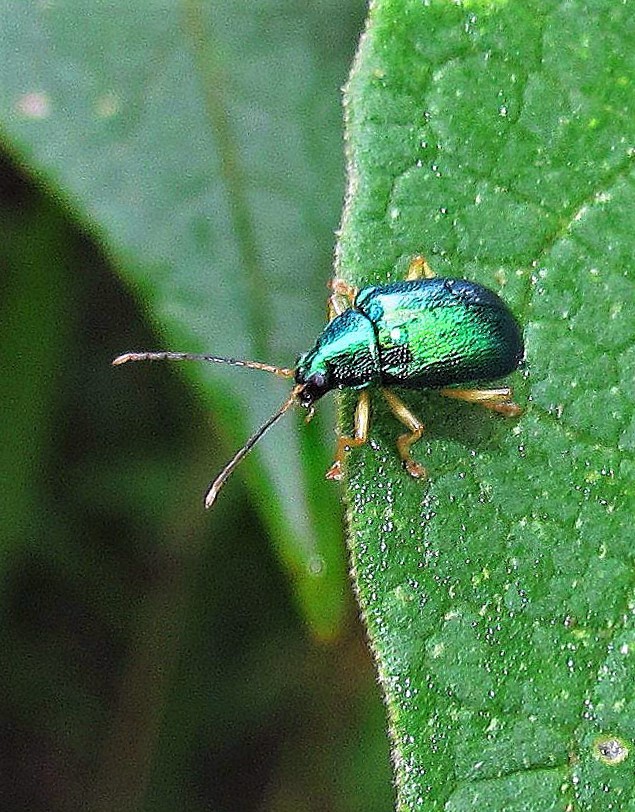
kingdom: Animalia
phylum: Arthropoda
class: Insecta
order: Coleoptera
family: Chrysomelidae
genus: Colaspis
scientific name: Colaspis
